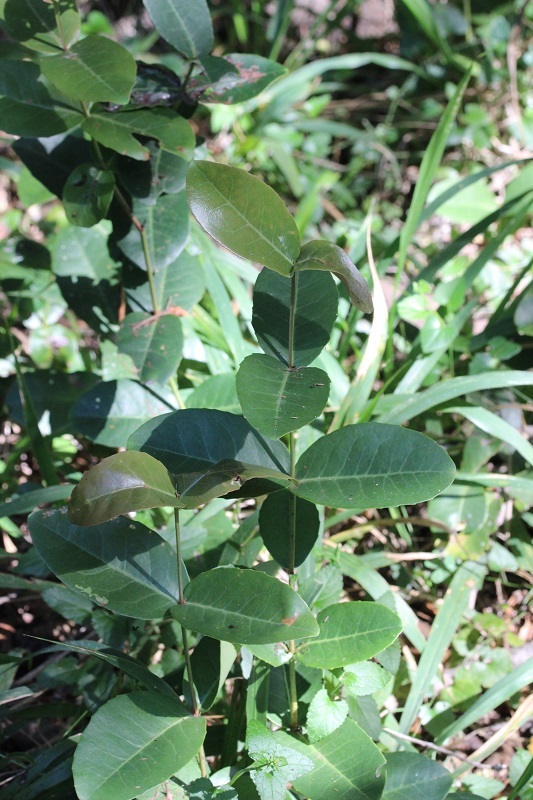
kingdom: Plantae
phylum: Tracheophyta
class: Magnoliopsida
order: Celastrales
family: Celastraceae
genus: Lauridia
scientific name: Lauridia tetragona
